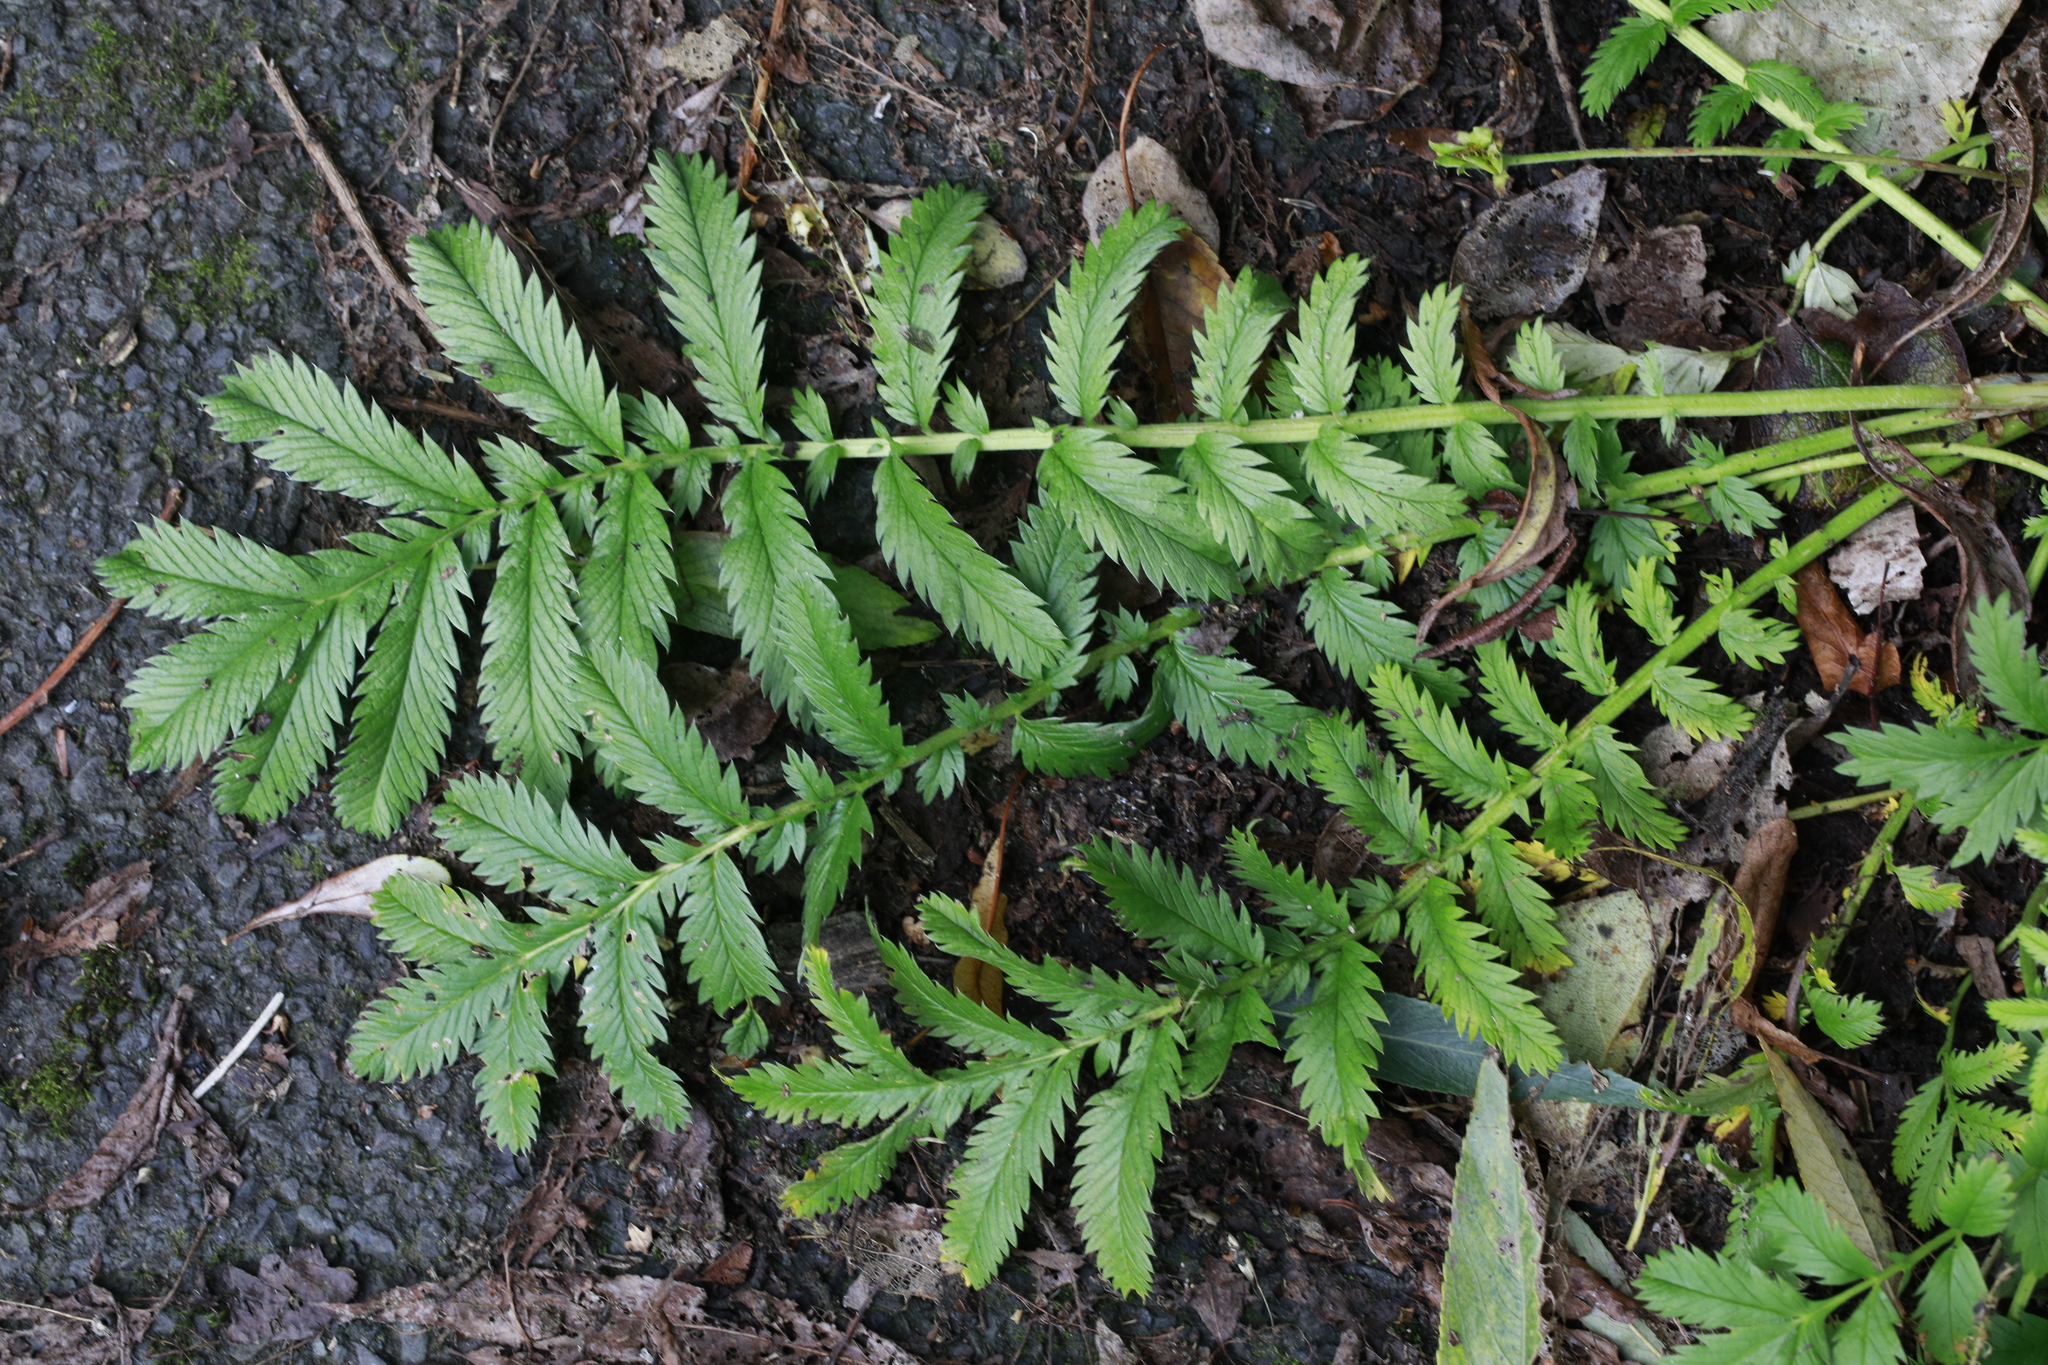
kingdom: Plantae
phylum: Tracheophyta
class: Magnoliopsida
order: Rosales
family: Rosaceae
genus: Argentina
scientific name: Argentina anserina
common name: Common silverweed
